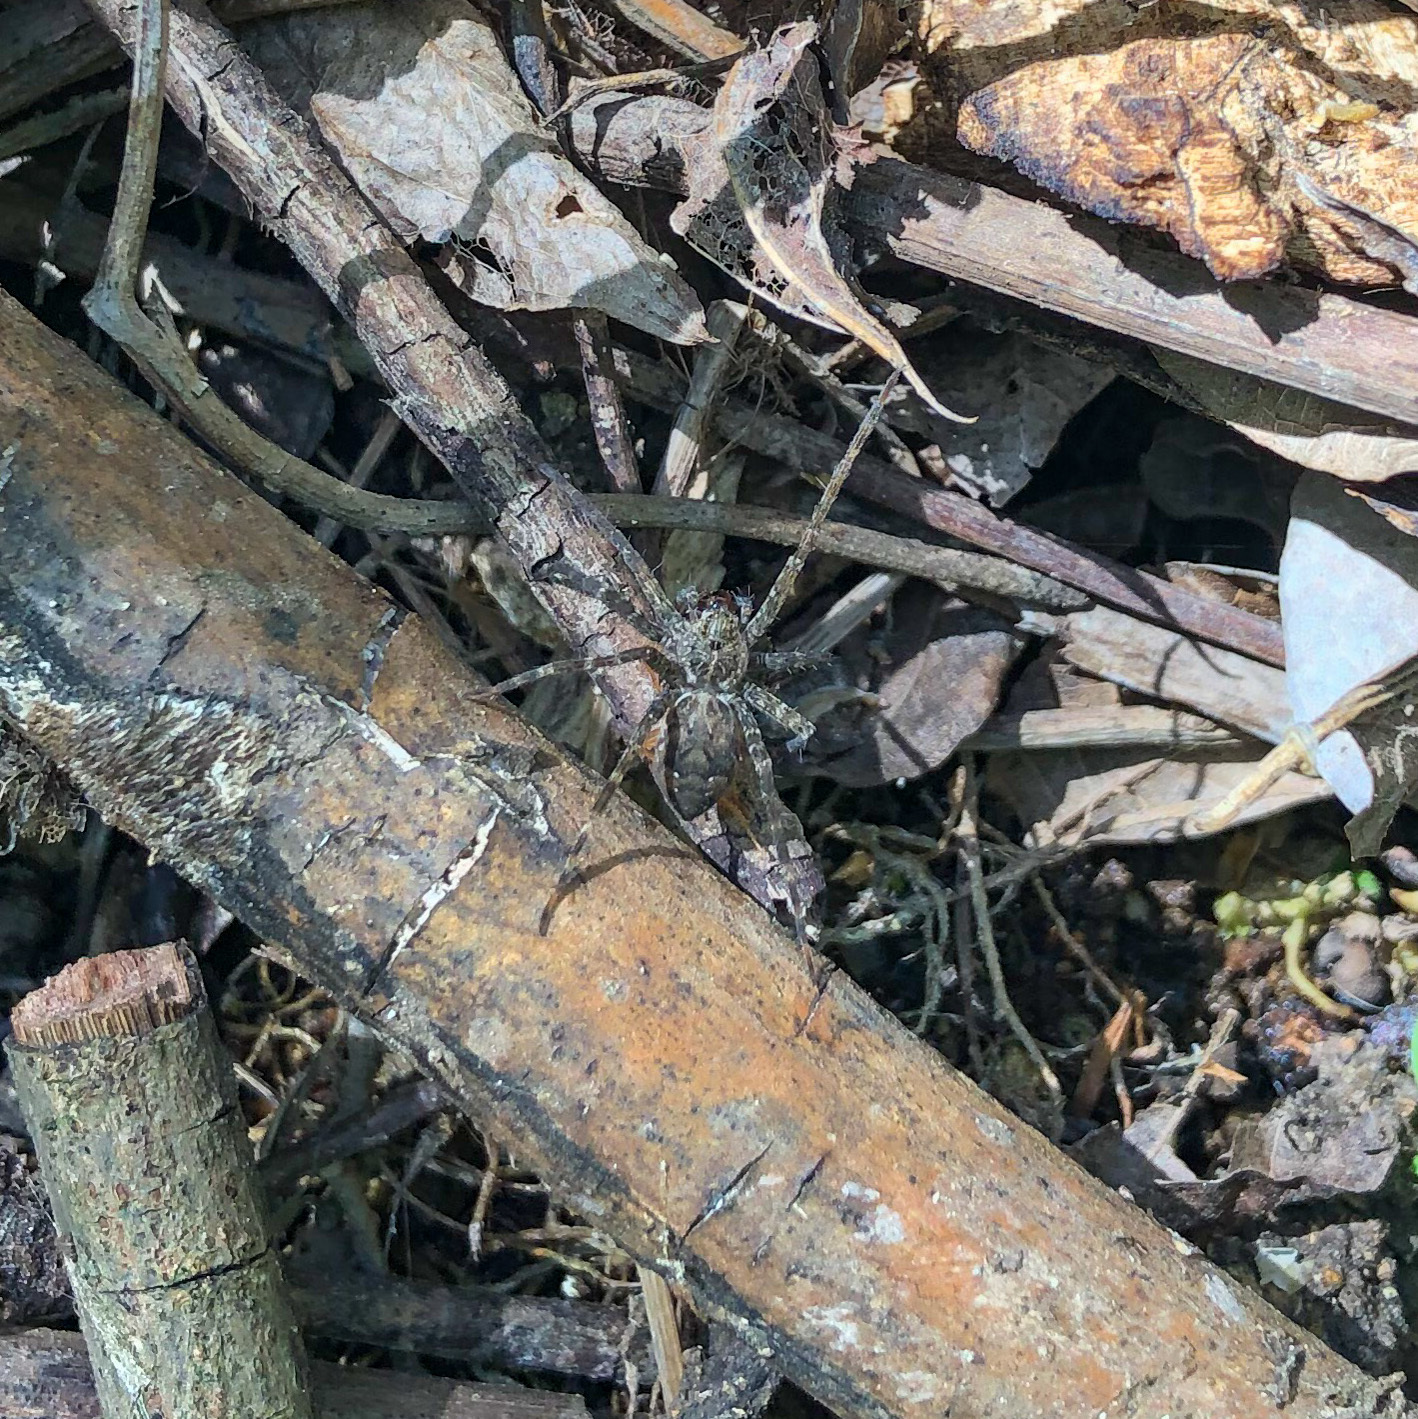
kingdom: Animalia
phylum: Arthropoda
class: Arachnida
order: Araneae
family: Pisauridae
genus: Dolomedes
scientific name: Dolomedes vittatus
